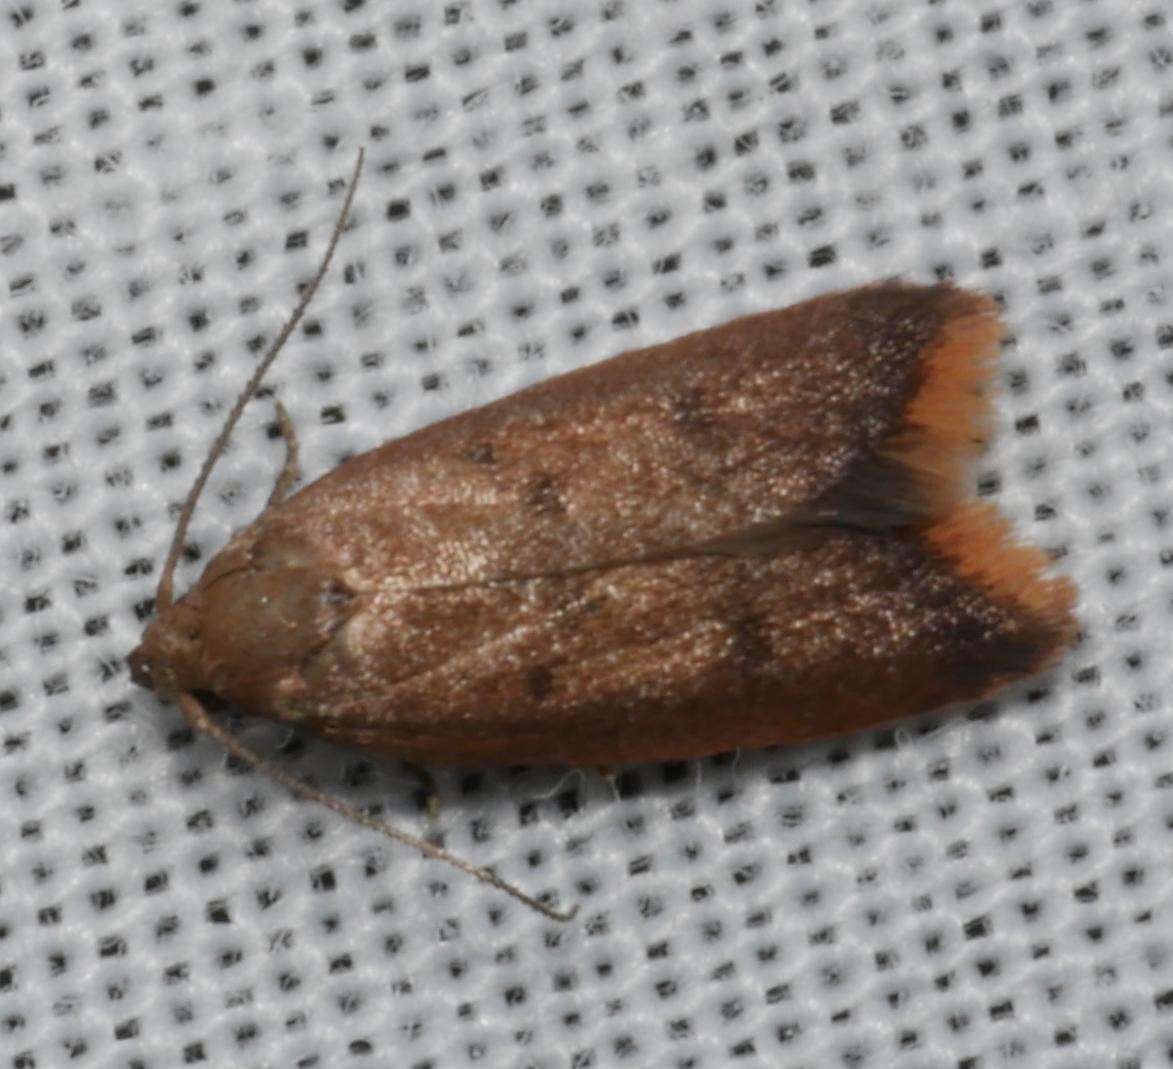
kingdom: Animalia
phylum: Arthropoda
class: Insecta
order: Lepidoptera
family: Oecophoridae
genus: Tachystola
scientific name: Tachystola acroxantha
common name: Ruddy streak
